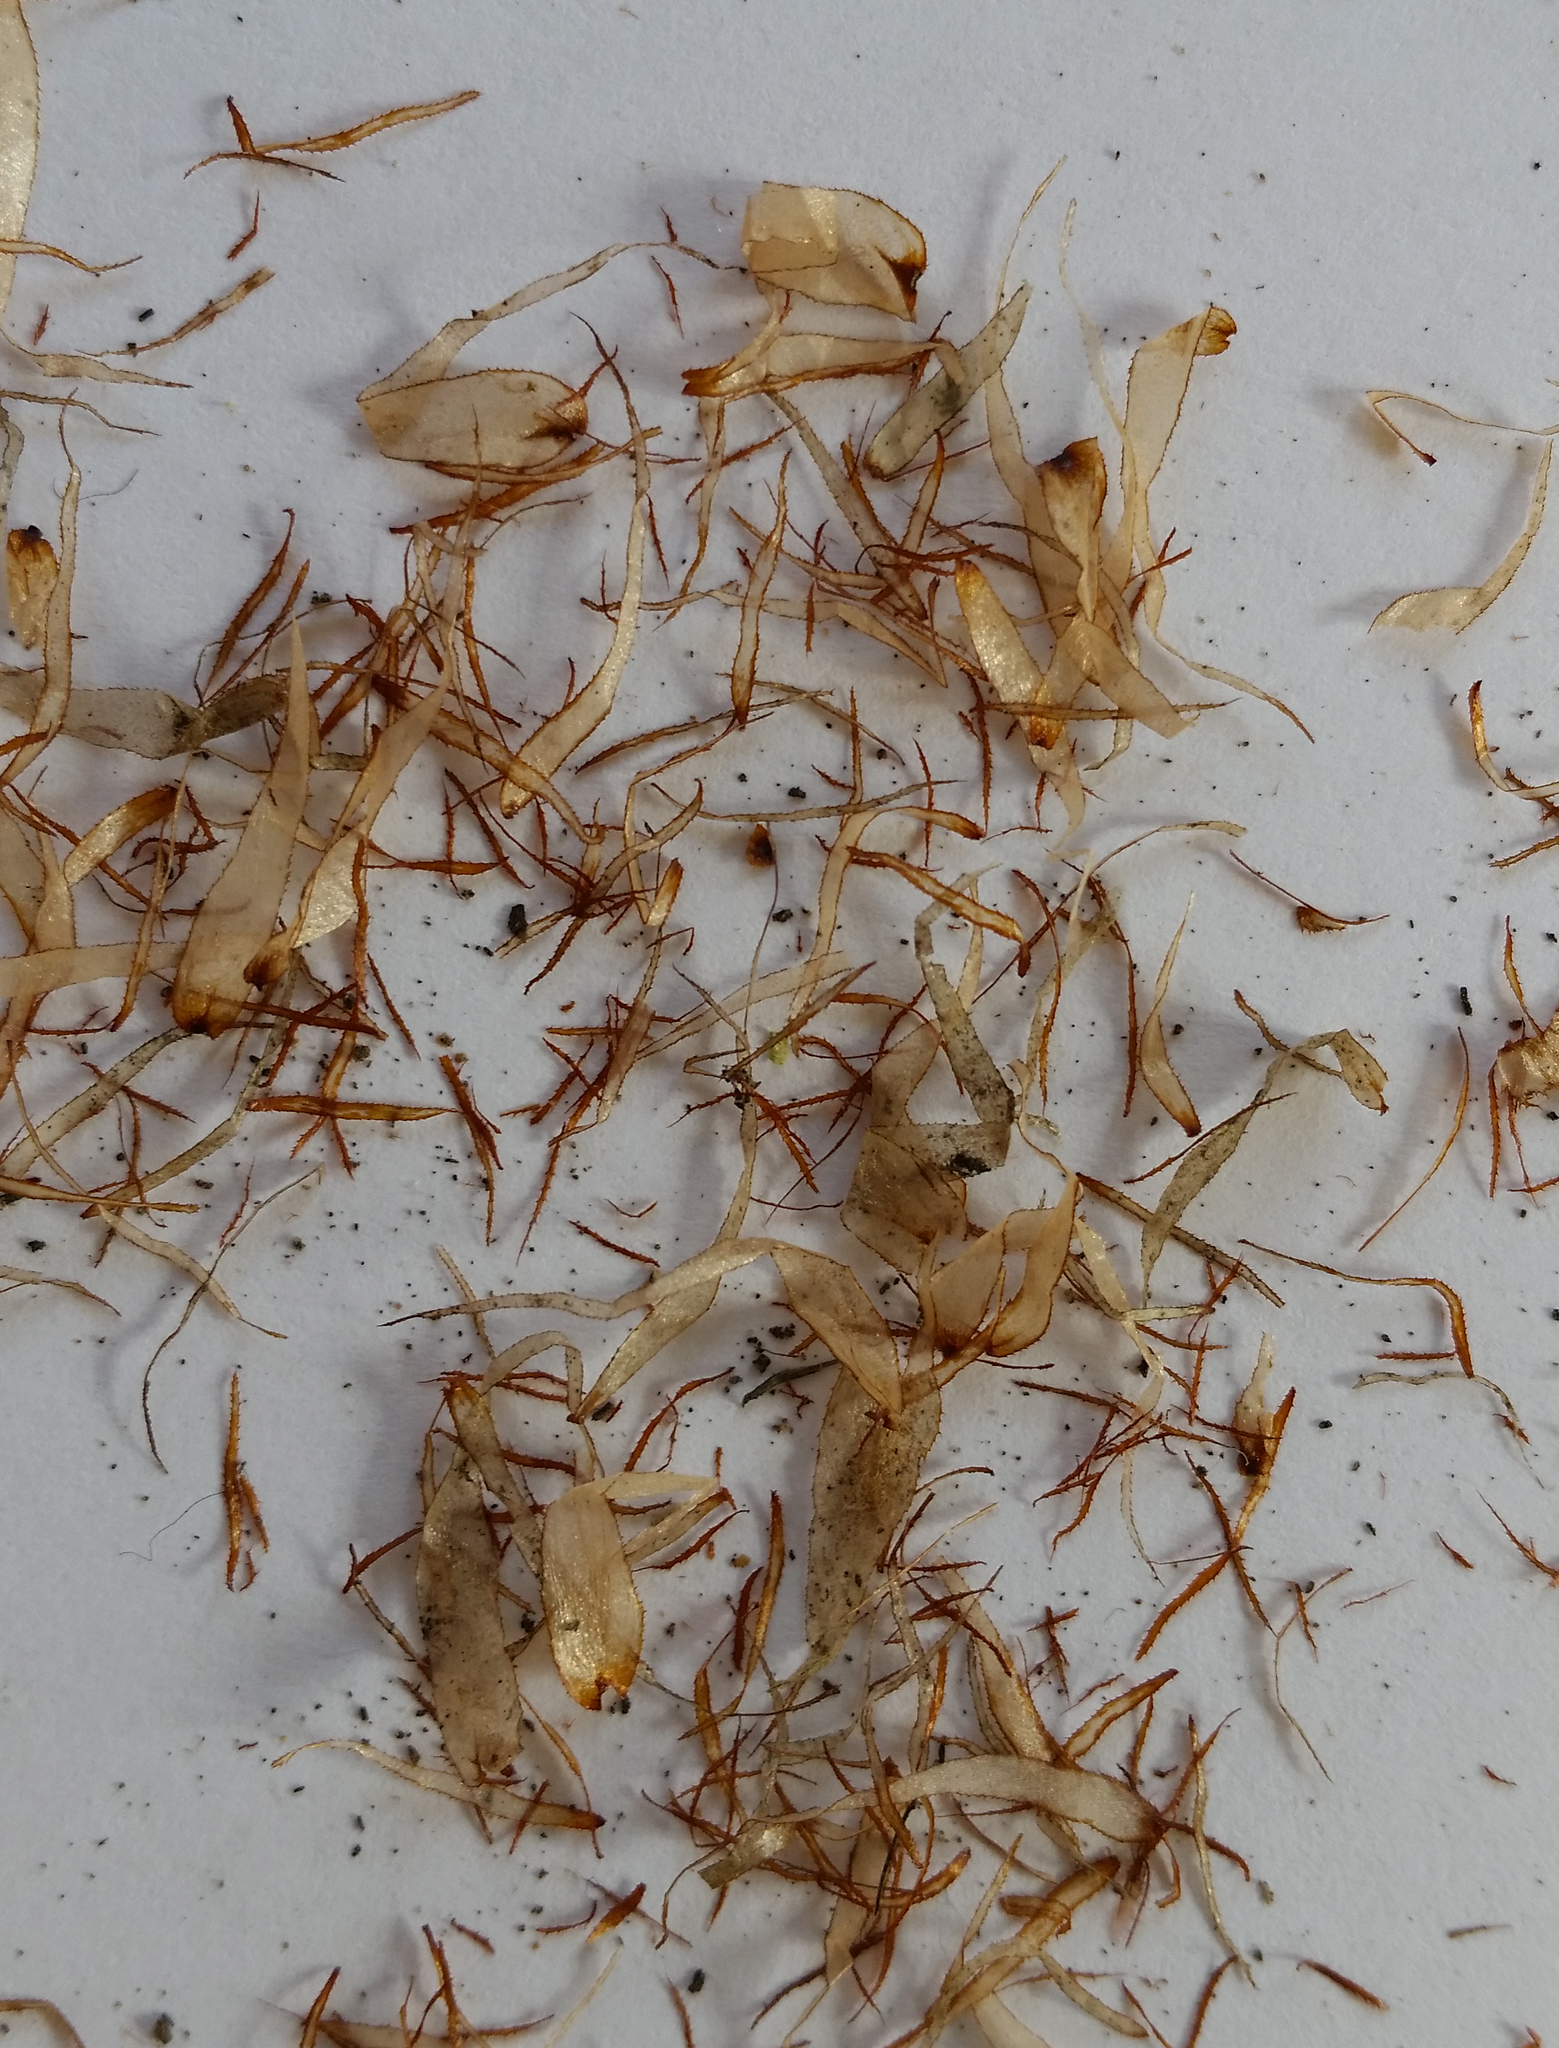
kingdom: Plantae
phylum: Tracheophyta
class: Polypodiopsida
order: Cyatheales
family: Cyatheaceae
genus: Sphaeropteris
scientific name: Sphaeropteris cooperi
